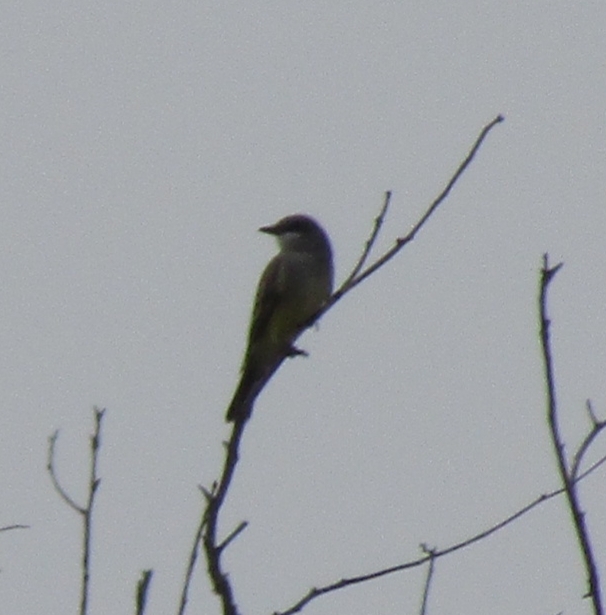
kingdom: Animalia
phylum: Chordata
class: Aves
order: Passeriformes
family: Tyrannidae
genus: Tyrannus
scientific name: Tyrannus vociferans
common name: Cassin's kingbird
